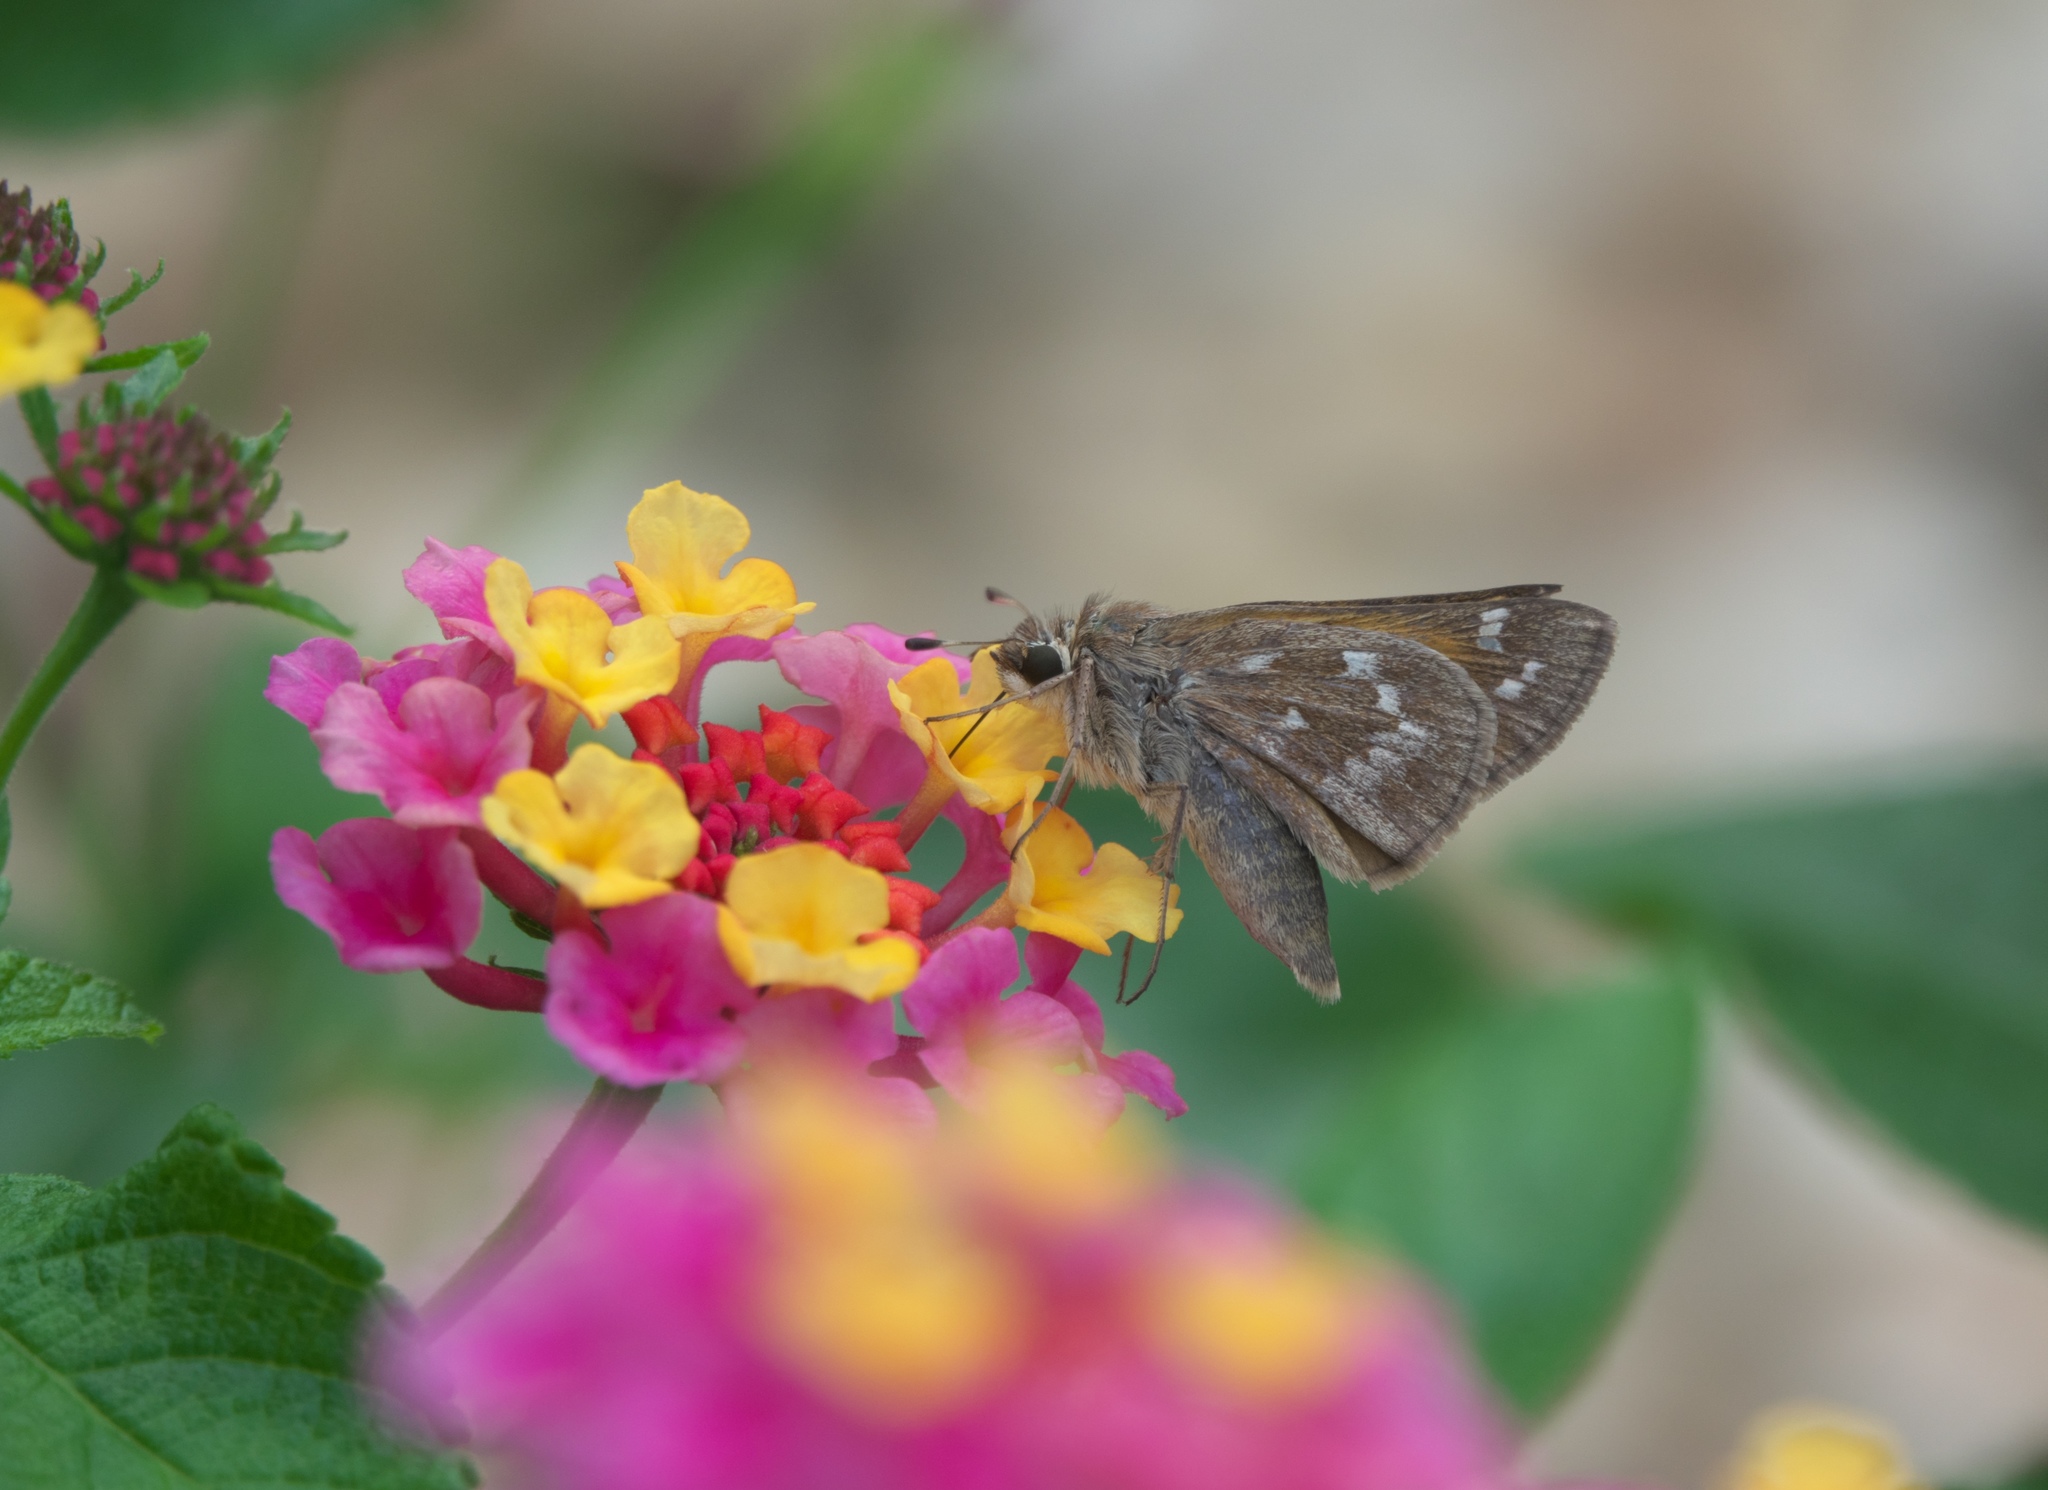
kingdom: Animalia
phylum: Arthropoda
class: Insecta
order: Lepidoptera
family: Hesperiidae
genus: Atalopedes
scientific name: Atalopedes
